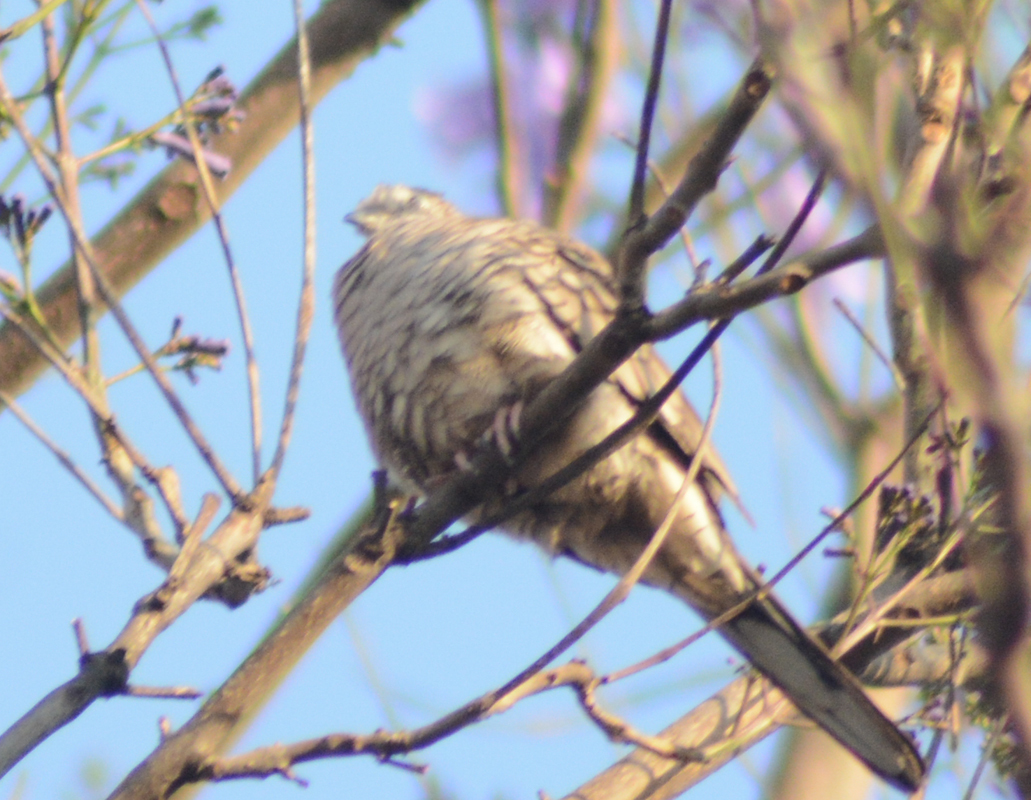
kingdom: Animalia
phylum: Chordata
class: Aves
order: Columbiformes
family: Columbidae
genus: Columbina
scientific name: Columbina inca
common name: Inca dove
